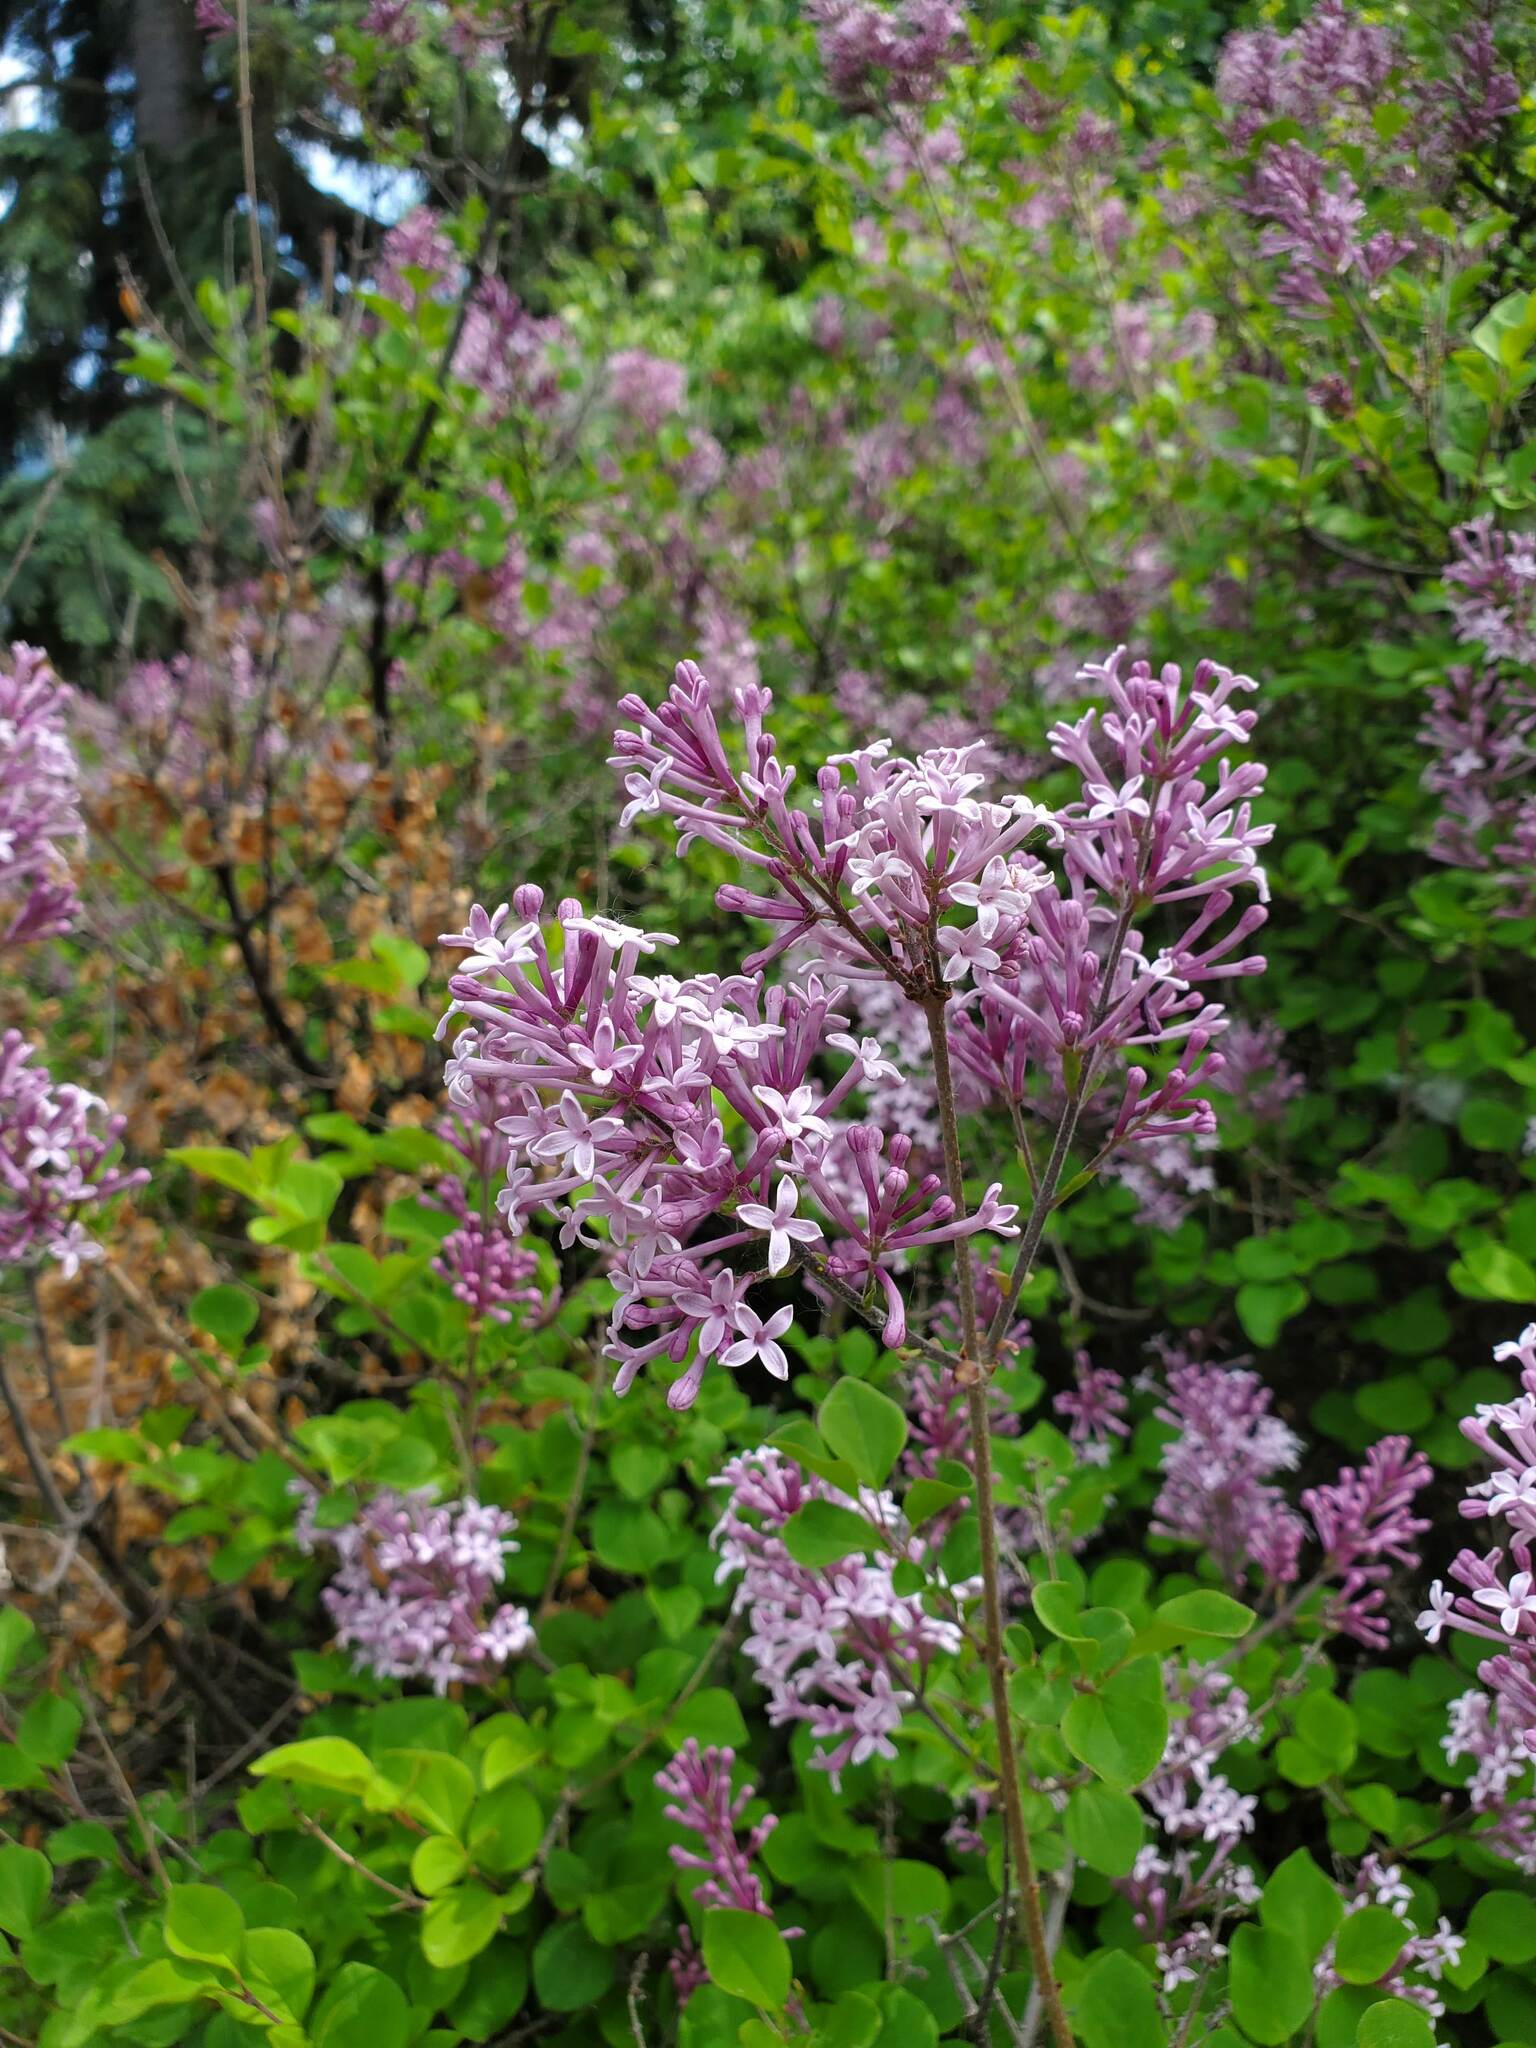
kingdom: Plantae
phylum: Tracheophyta
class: Magnoliopsida
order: Lamiales
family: Oleaceae
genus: Syringa
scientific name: Syringa pubescens
